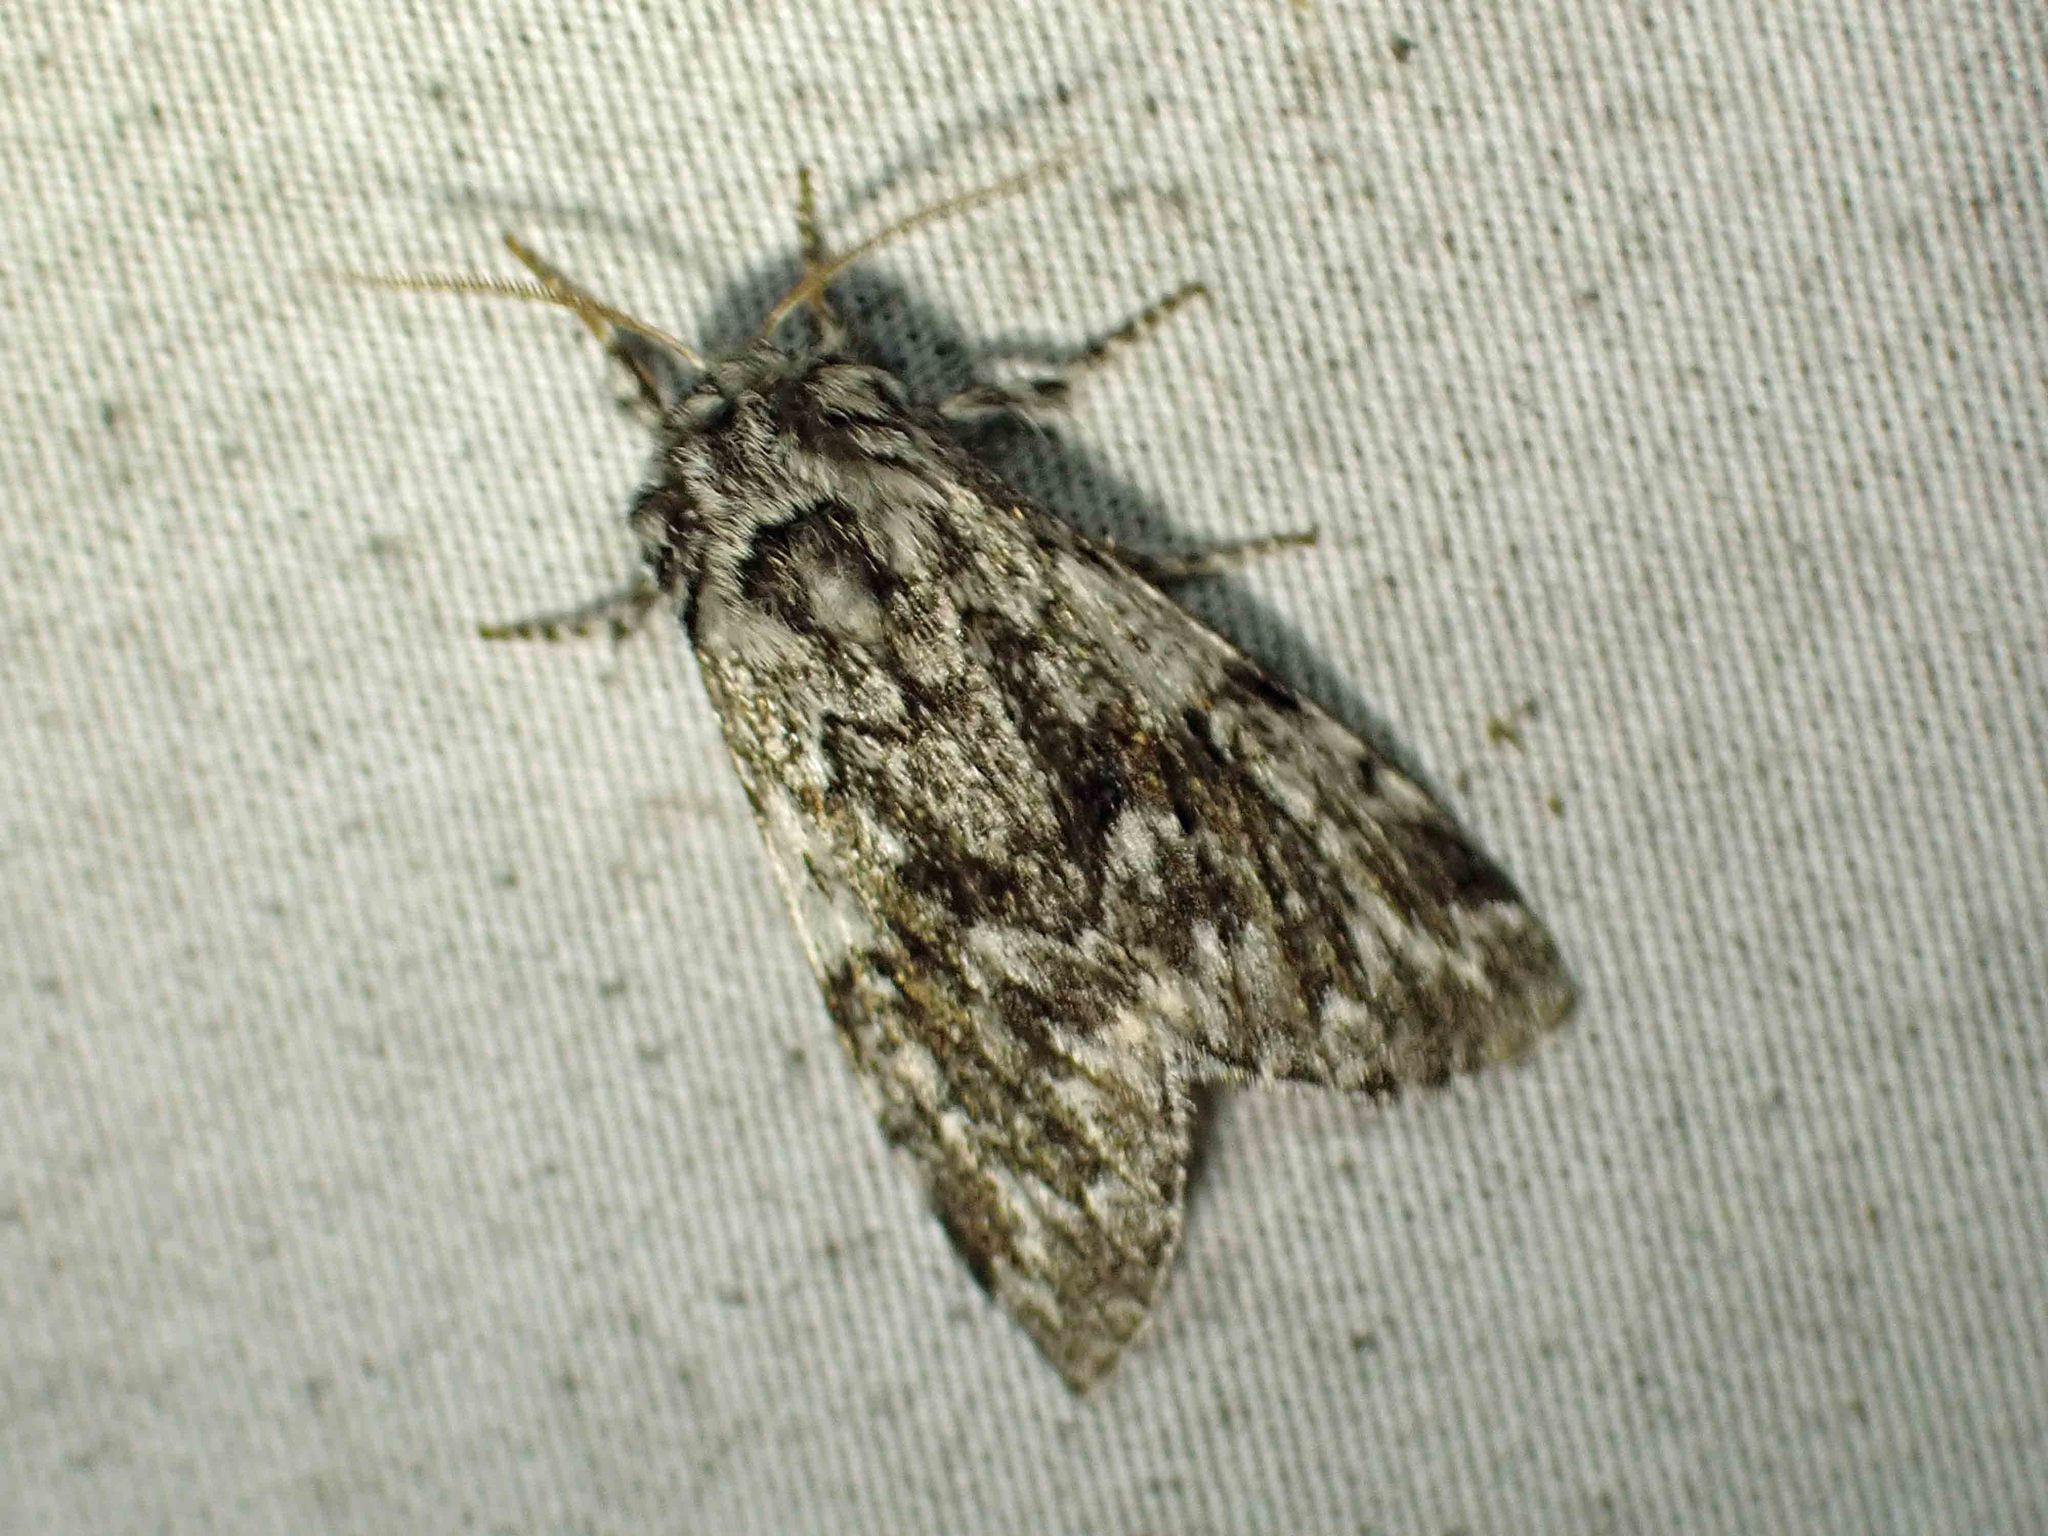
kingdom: Animalia
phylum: Arthropoda
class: Insecta
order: Lepidoptera
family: Noctuidae
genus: Panthea
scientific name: Panthea acronyctoides
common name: Black zigzag moth
